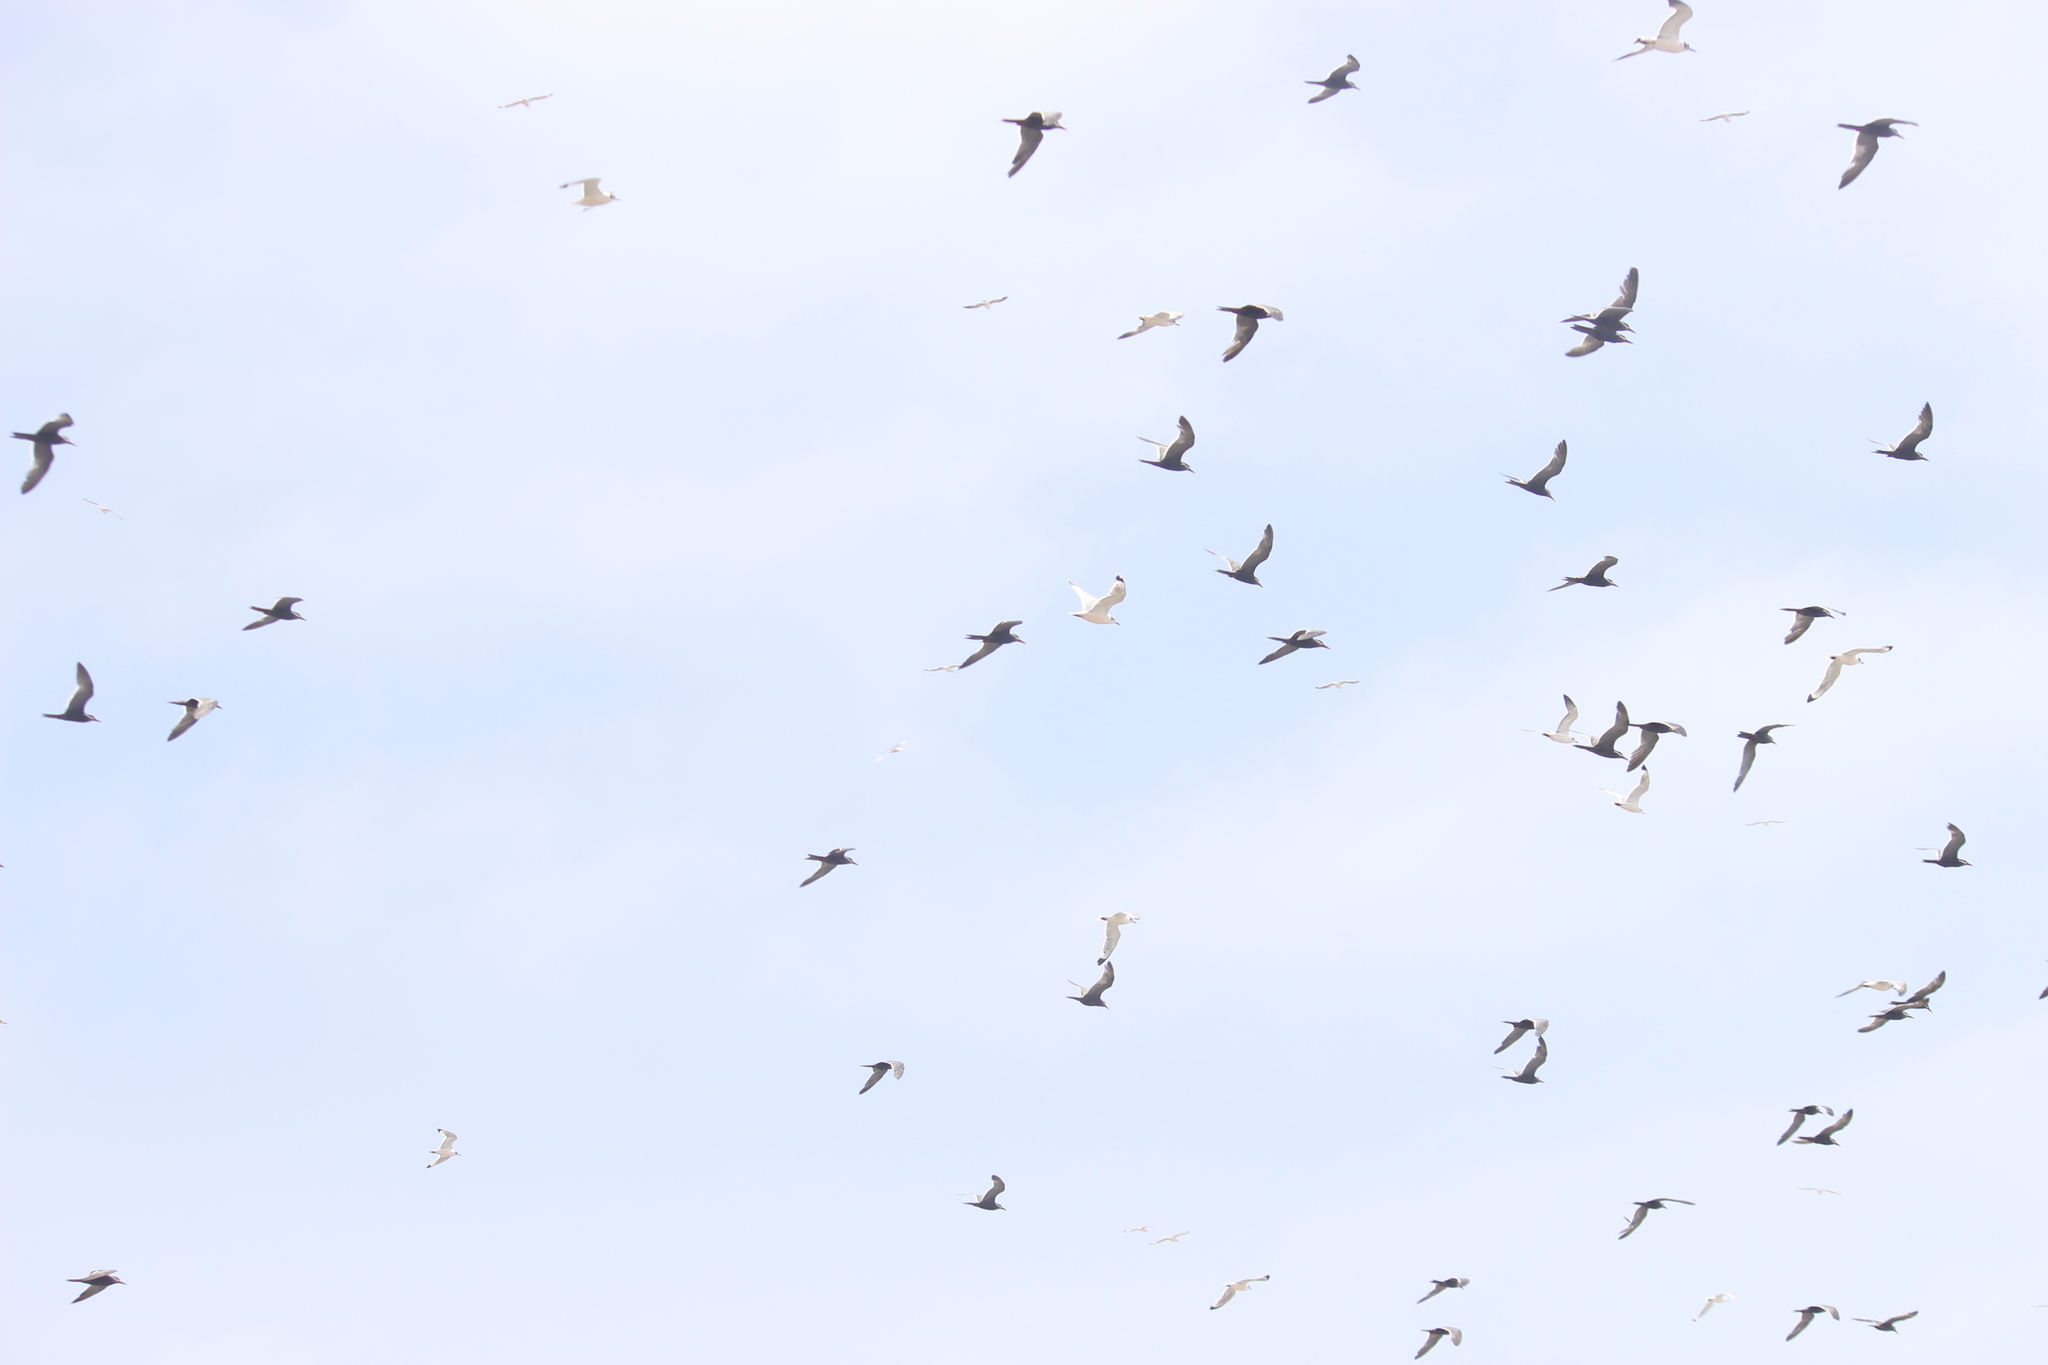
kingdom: Animalia
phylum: Chordata
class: Aves
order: Charadriiformes
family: Laridae
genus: Larosterna
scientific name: Larosterna inca
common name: Inca tern
